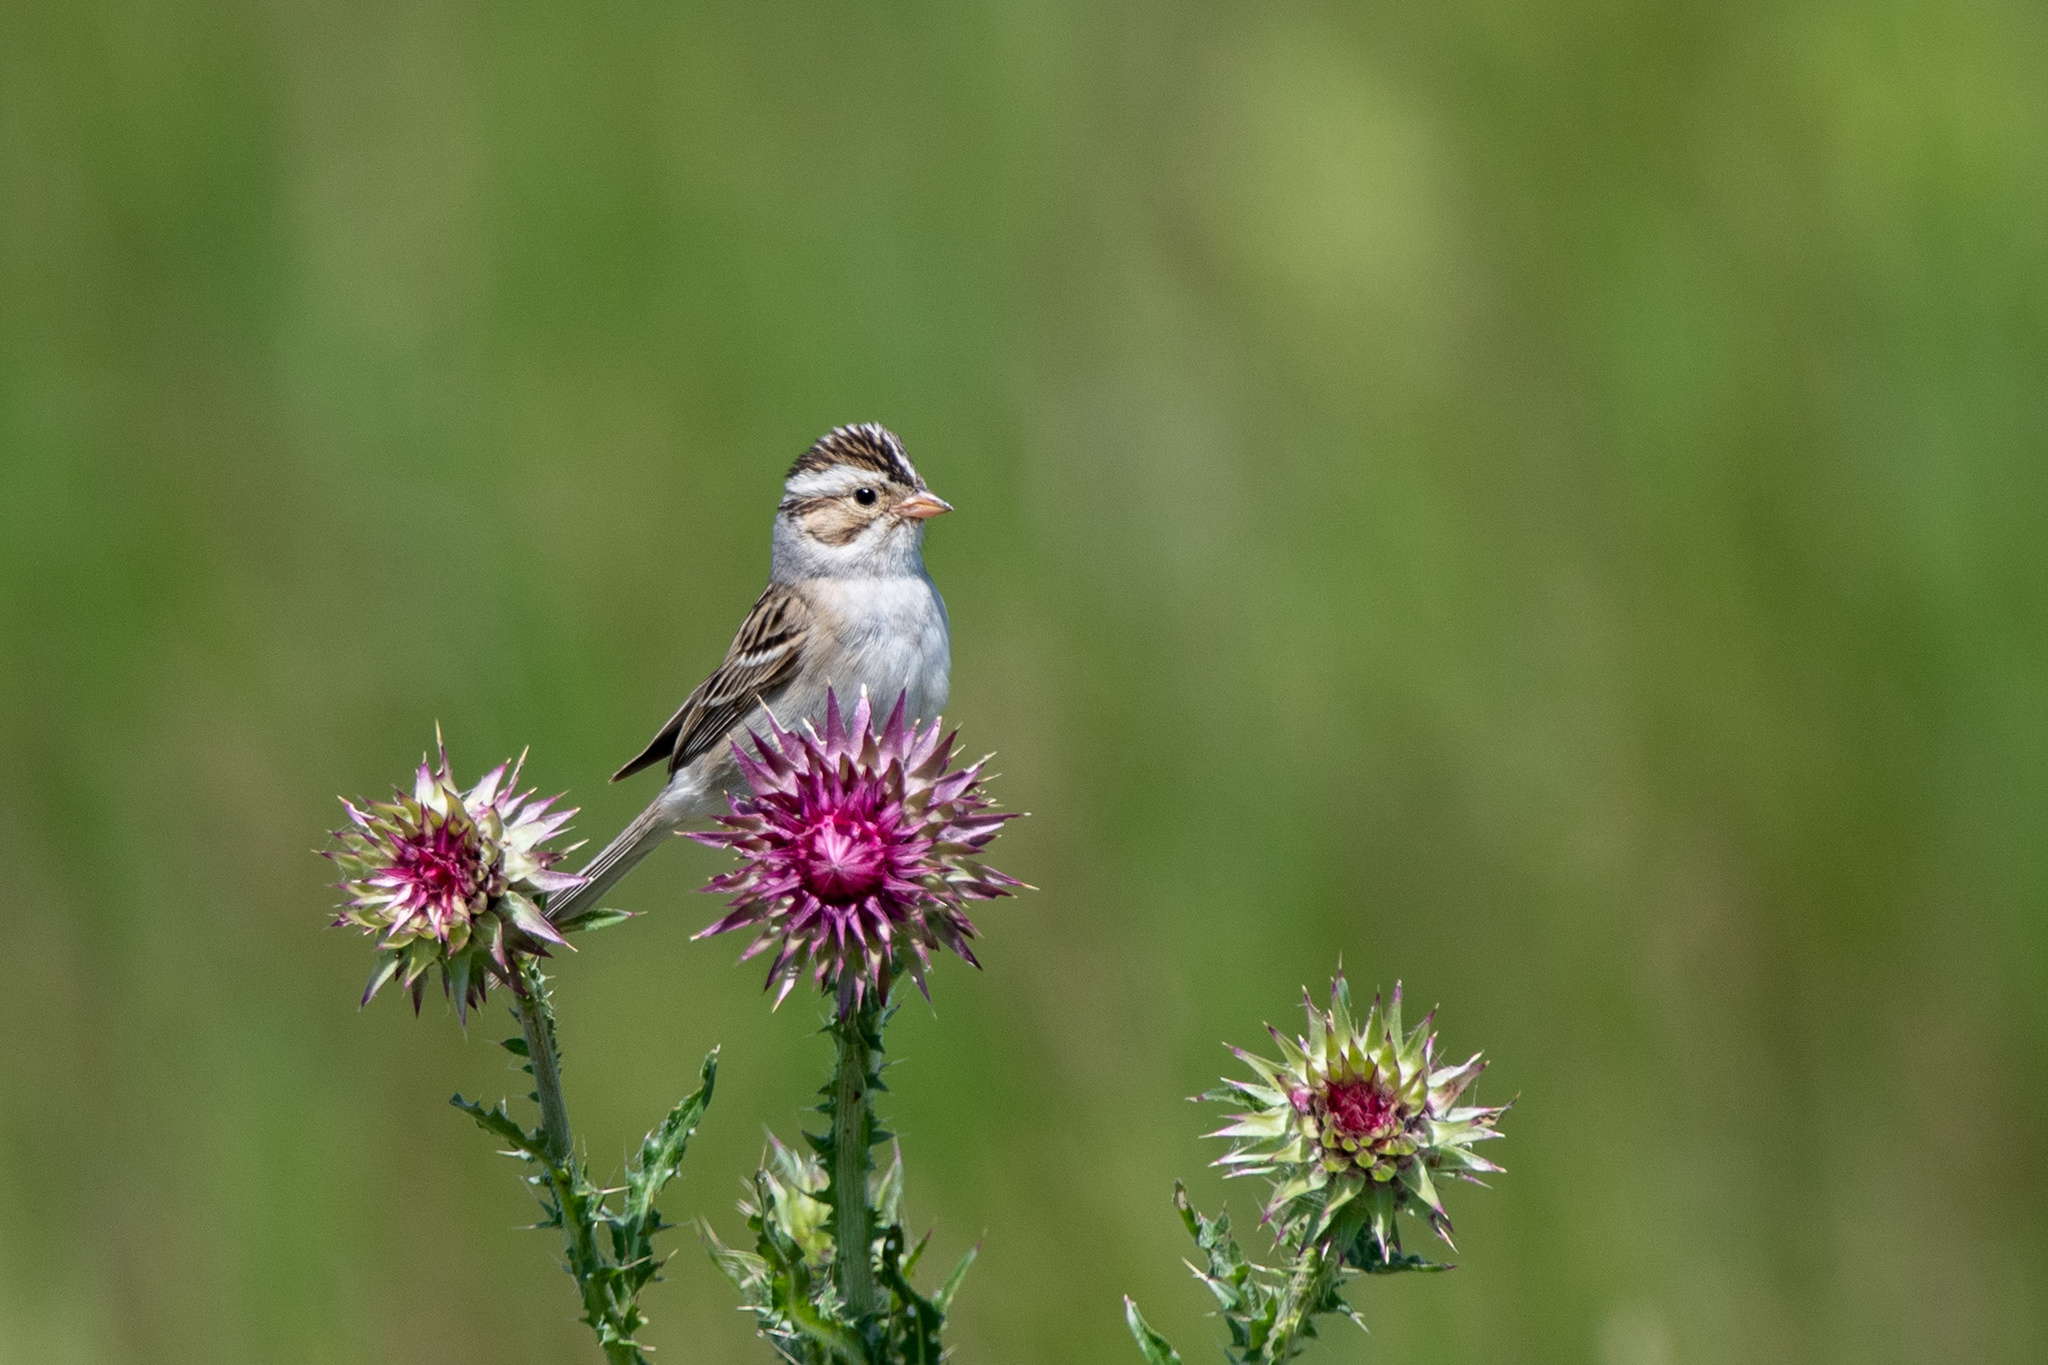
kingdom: Animalia
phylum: Chordata
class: Aves
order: Passeriformes
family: Passerellidae
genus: Spizella
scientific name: Spizella pallida
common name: Clay-colored sparrow
